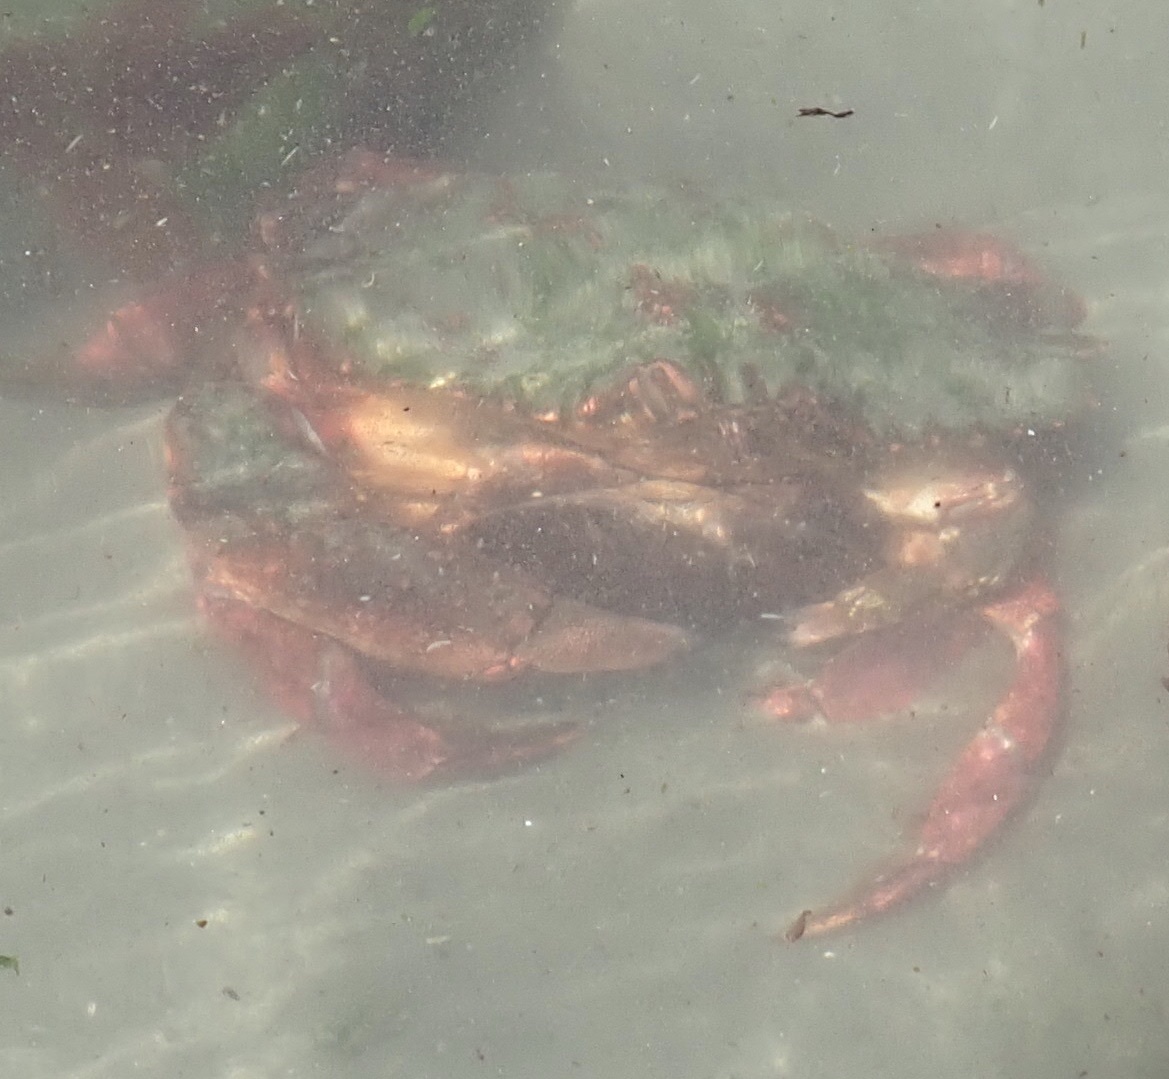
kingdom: Animalia
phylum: Arthropoda
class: Malacostraca
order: Decapoda
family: Cancridae
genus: Cancer
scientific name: Cancer productus
